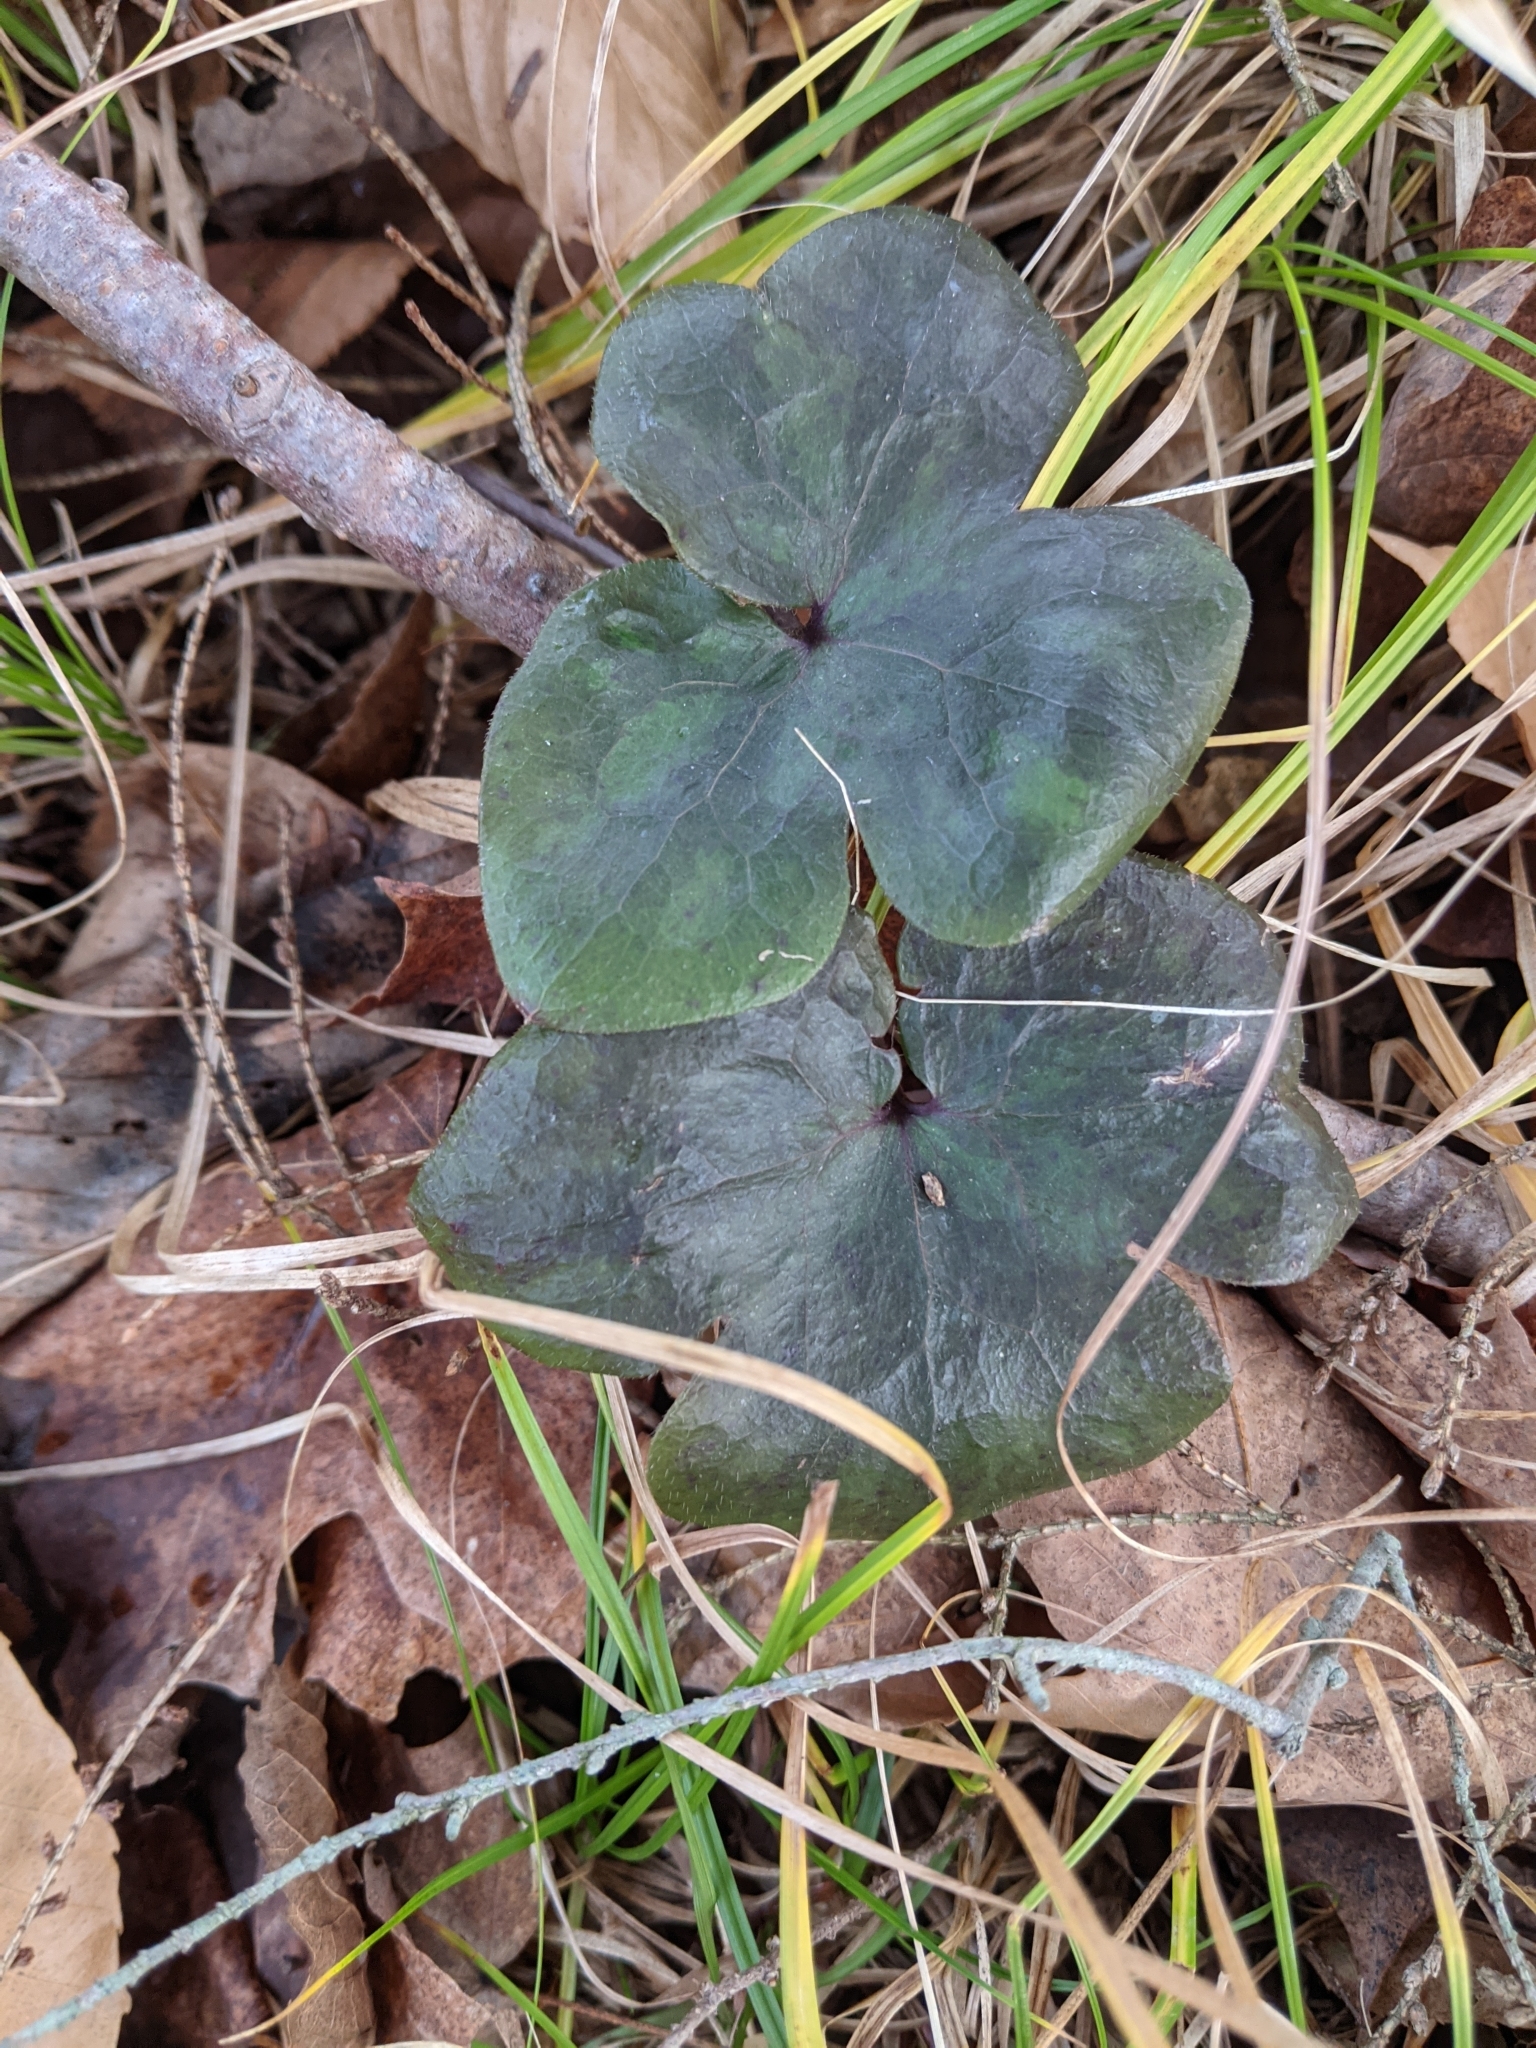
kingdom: Plantae
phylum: Tracheophyta
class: Magnoliopsida
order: Ranunculales
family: Ranunculaceae
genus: Hepatica
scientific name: Hepatica americana
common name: American hepatica
